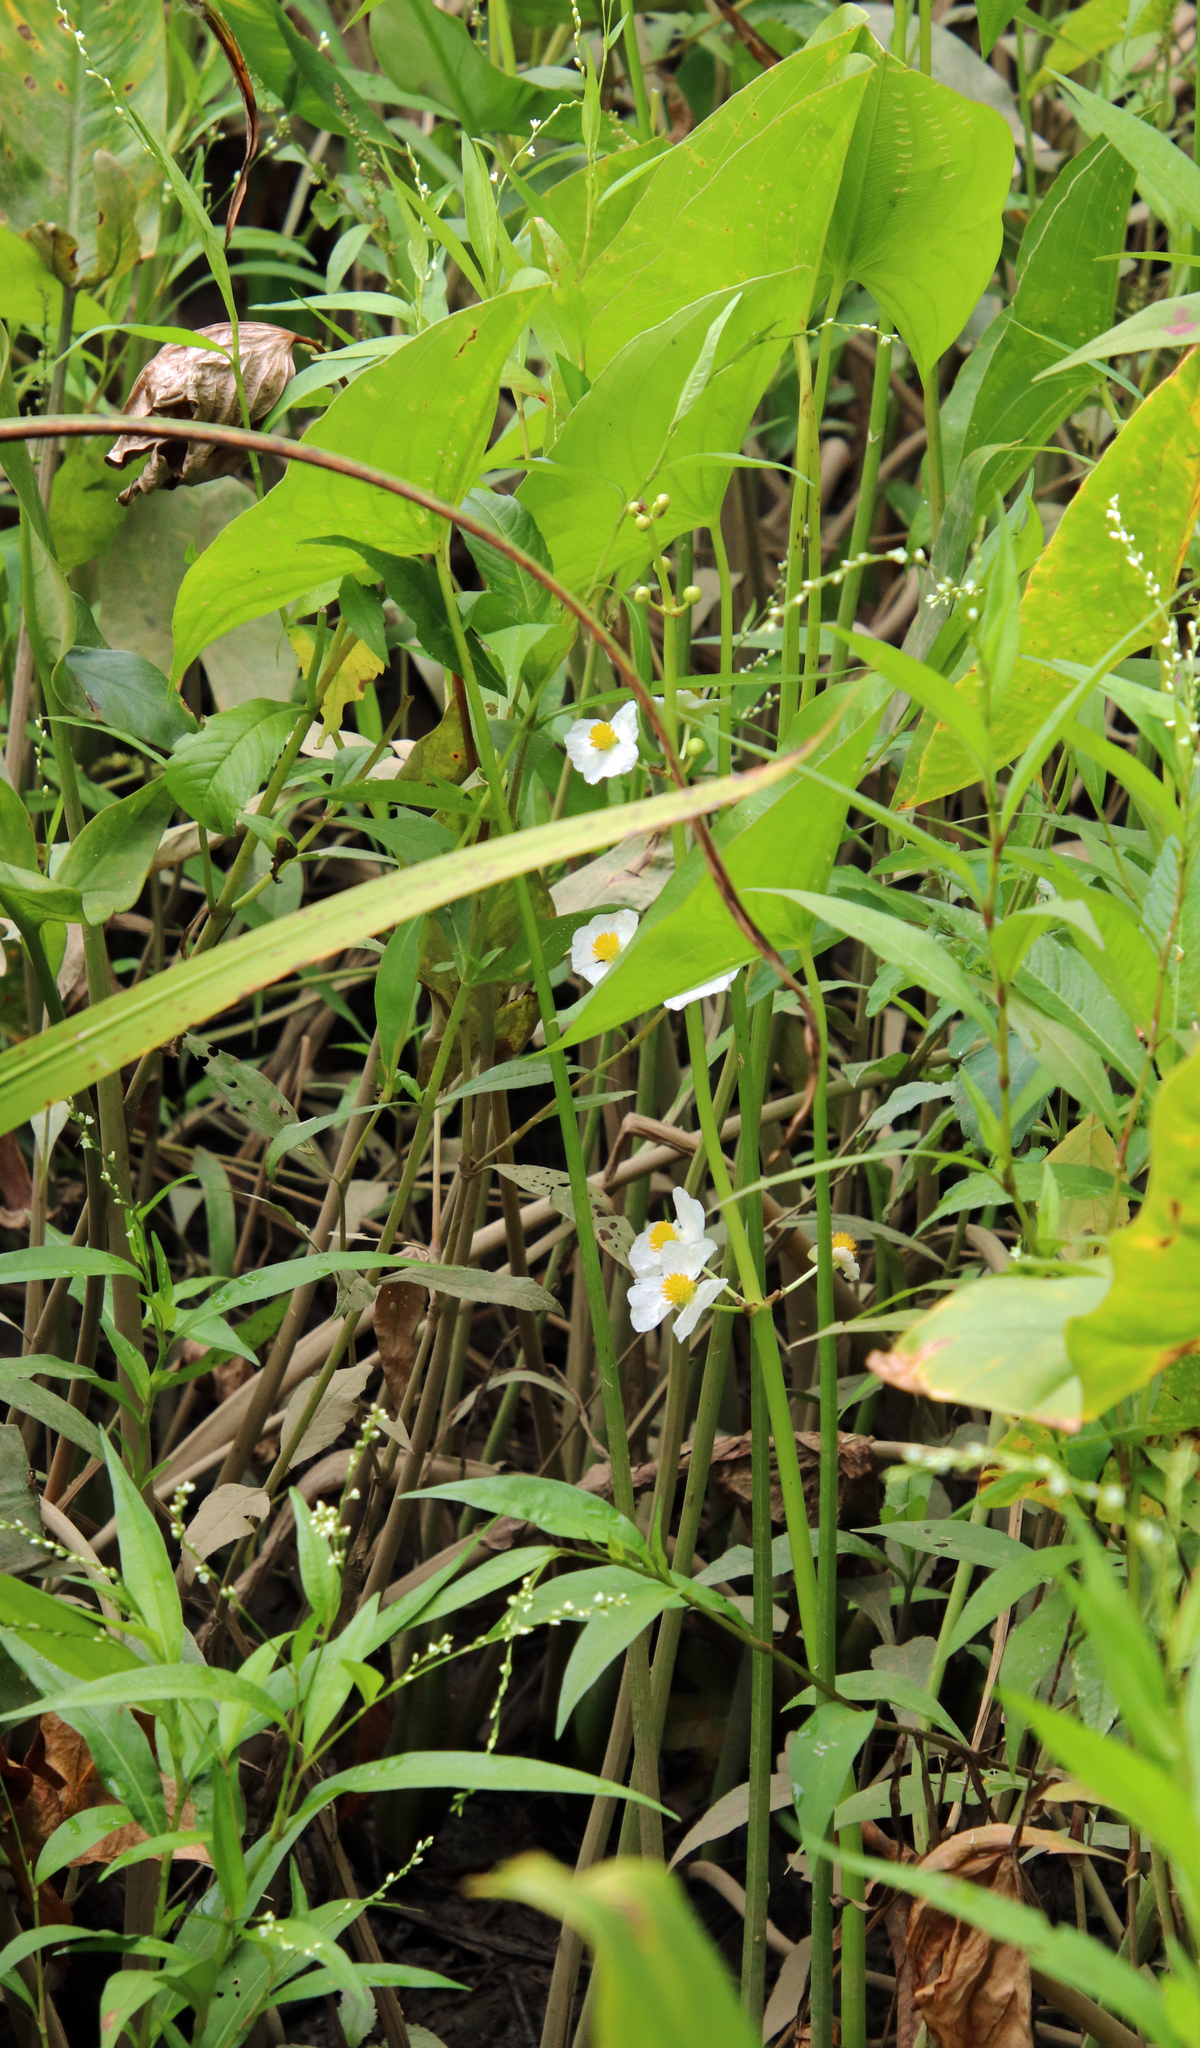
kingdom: Plantae
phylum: Tracheophyta
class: Liliopsida
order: Alismatales
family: Alismataceae
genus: Sagittaria
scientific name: Sagittaria latifolia
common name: Duck-potato
